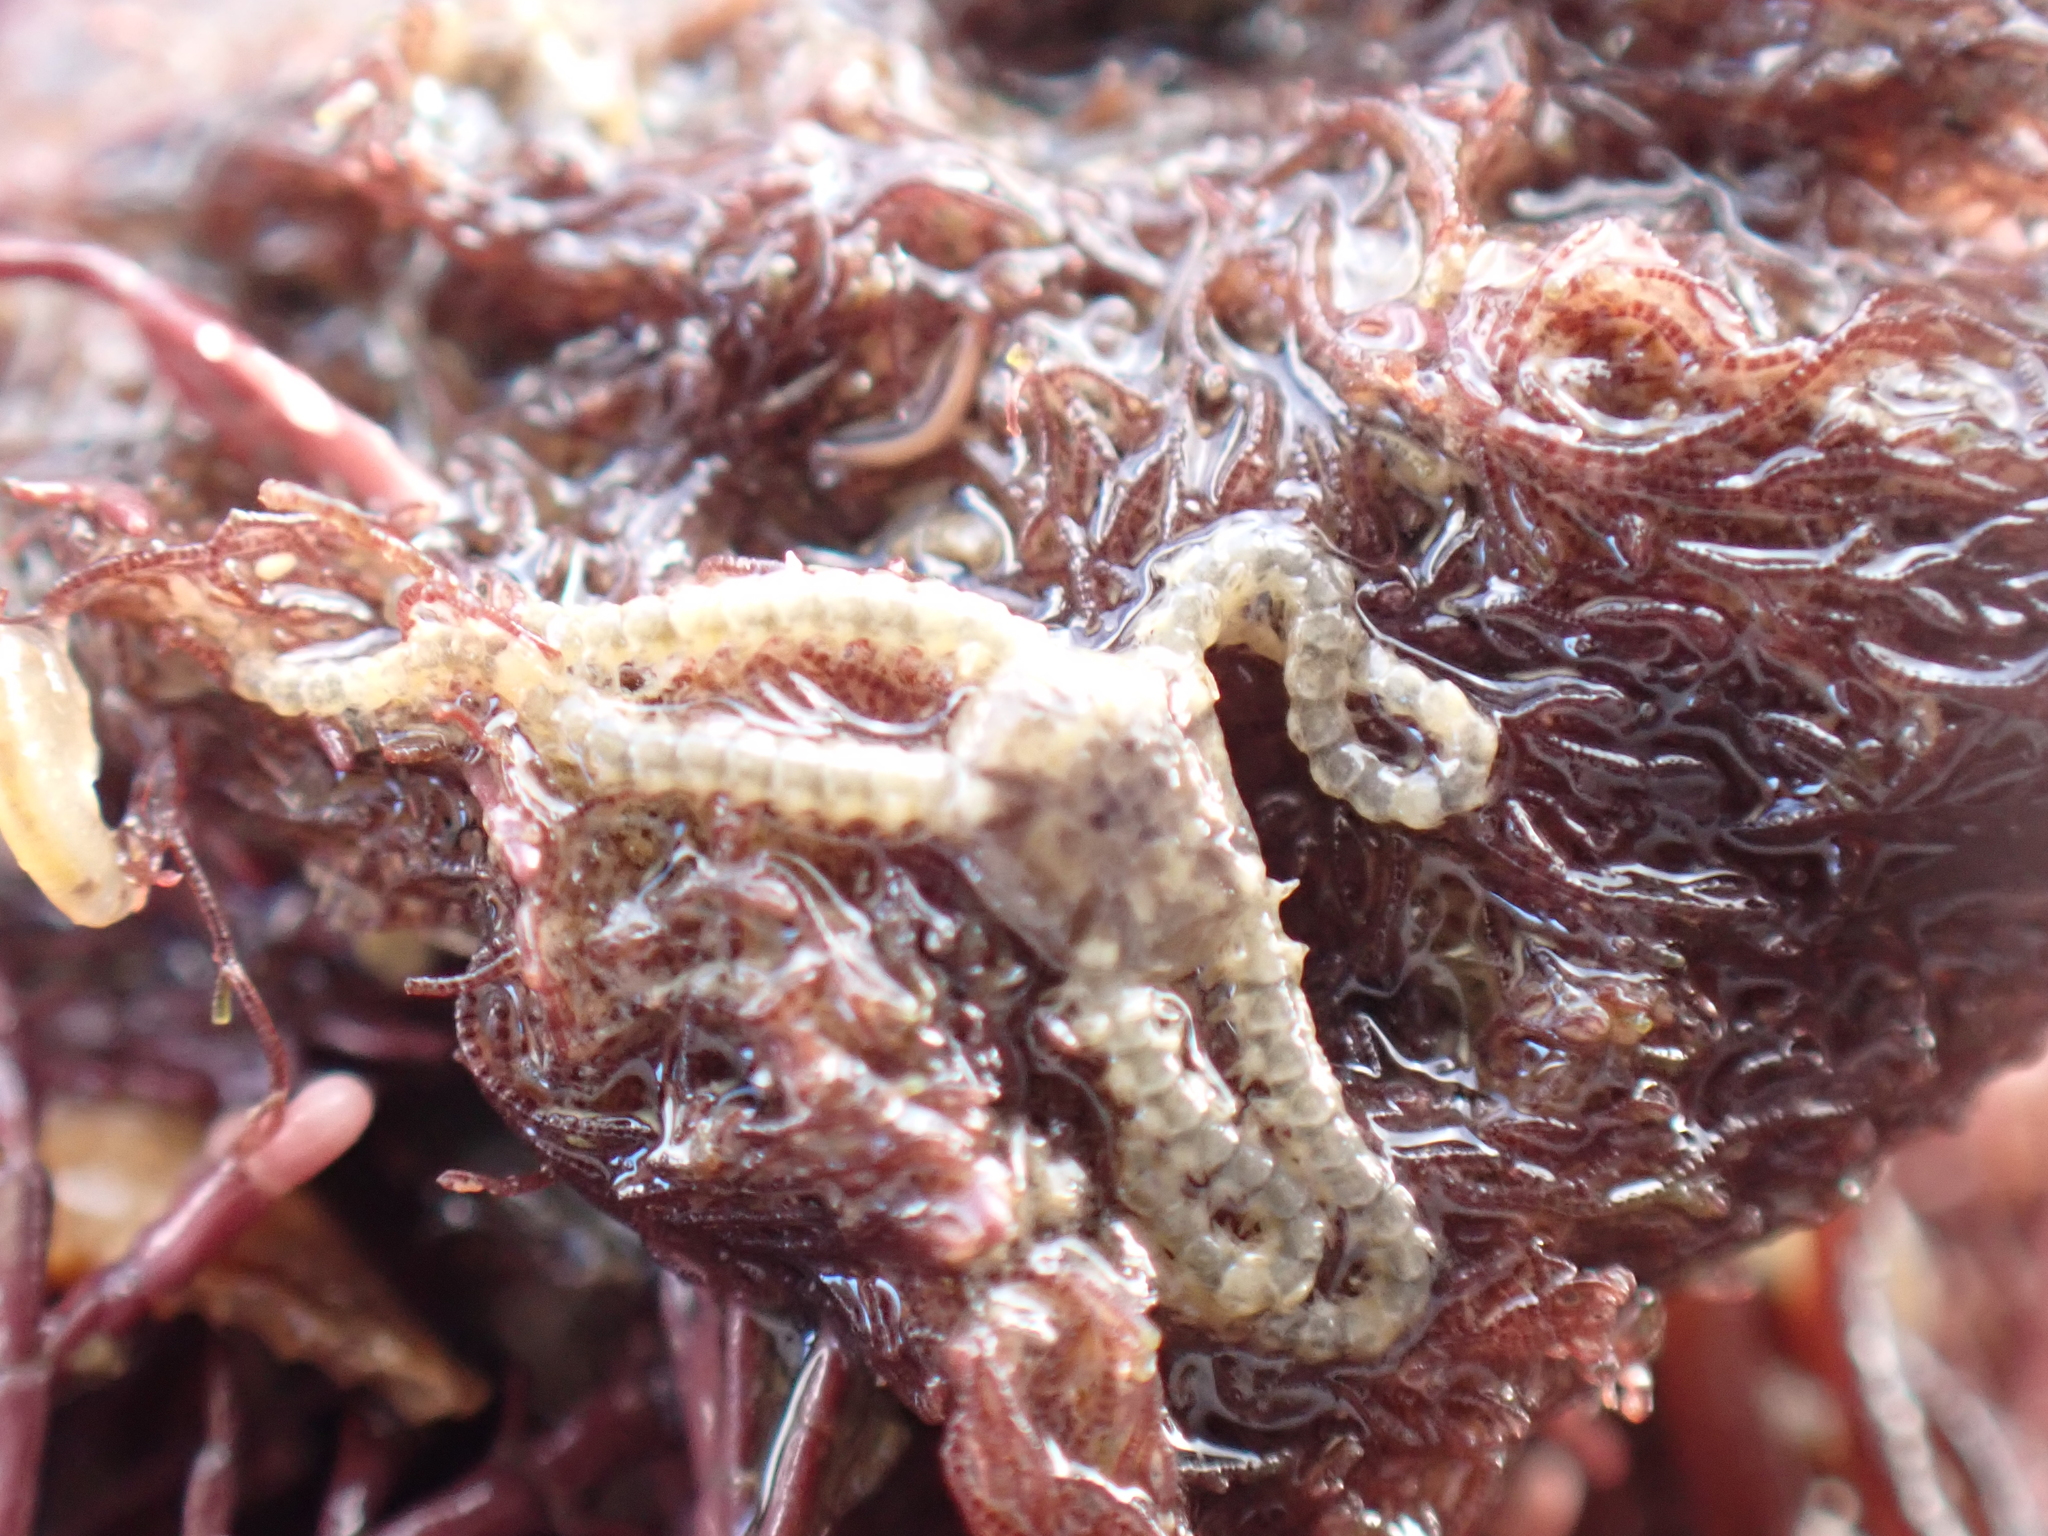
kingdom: Animalia
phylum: Echinodermata
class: Ophiuroidea
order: Amphilepidida
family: Amphiuridae
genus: Amphipholis
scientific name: Amphipholis squamata
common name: Brooding snake star
